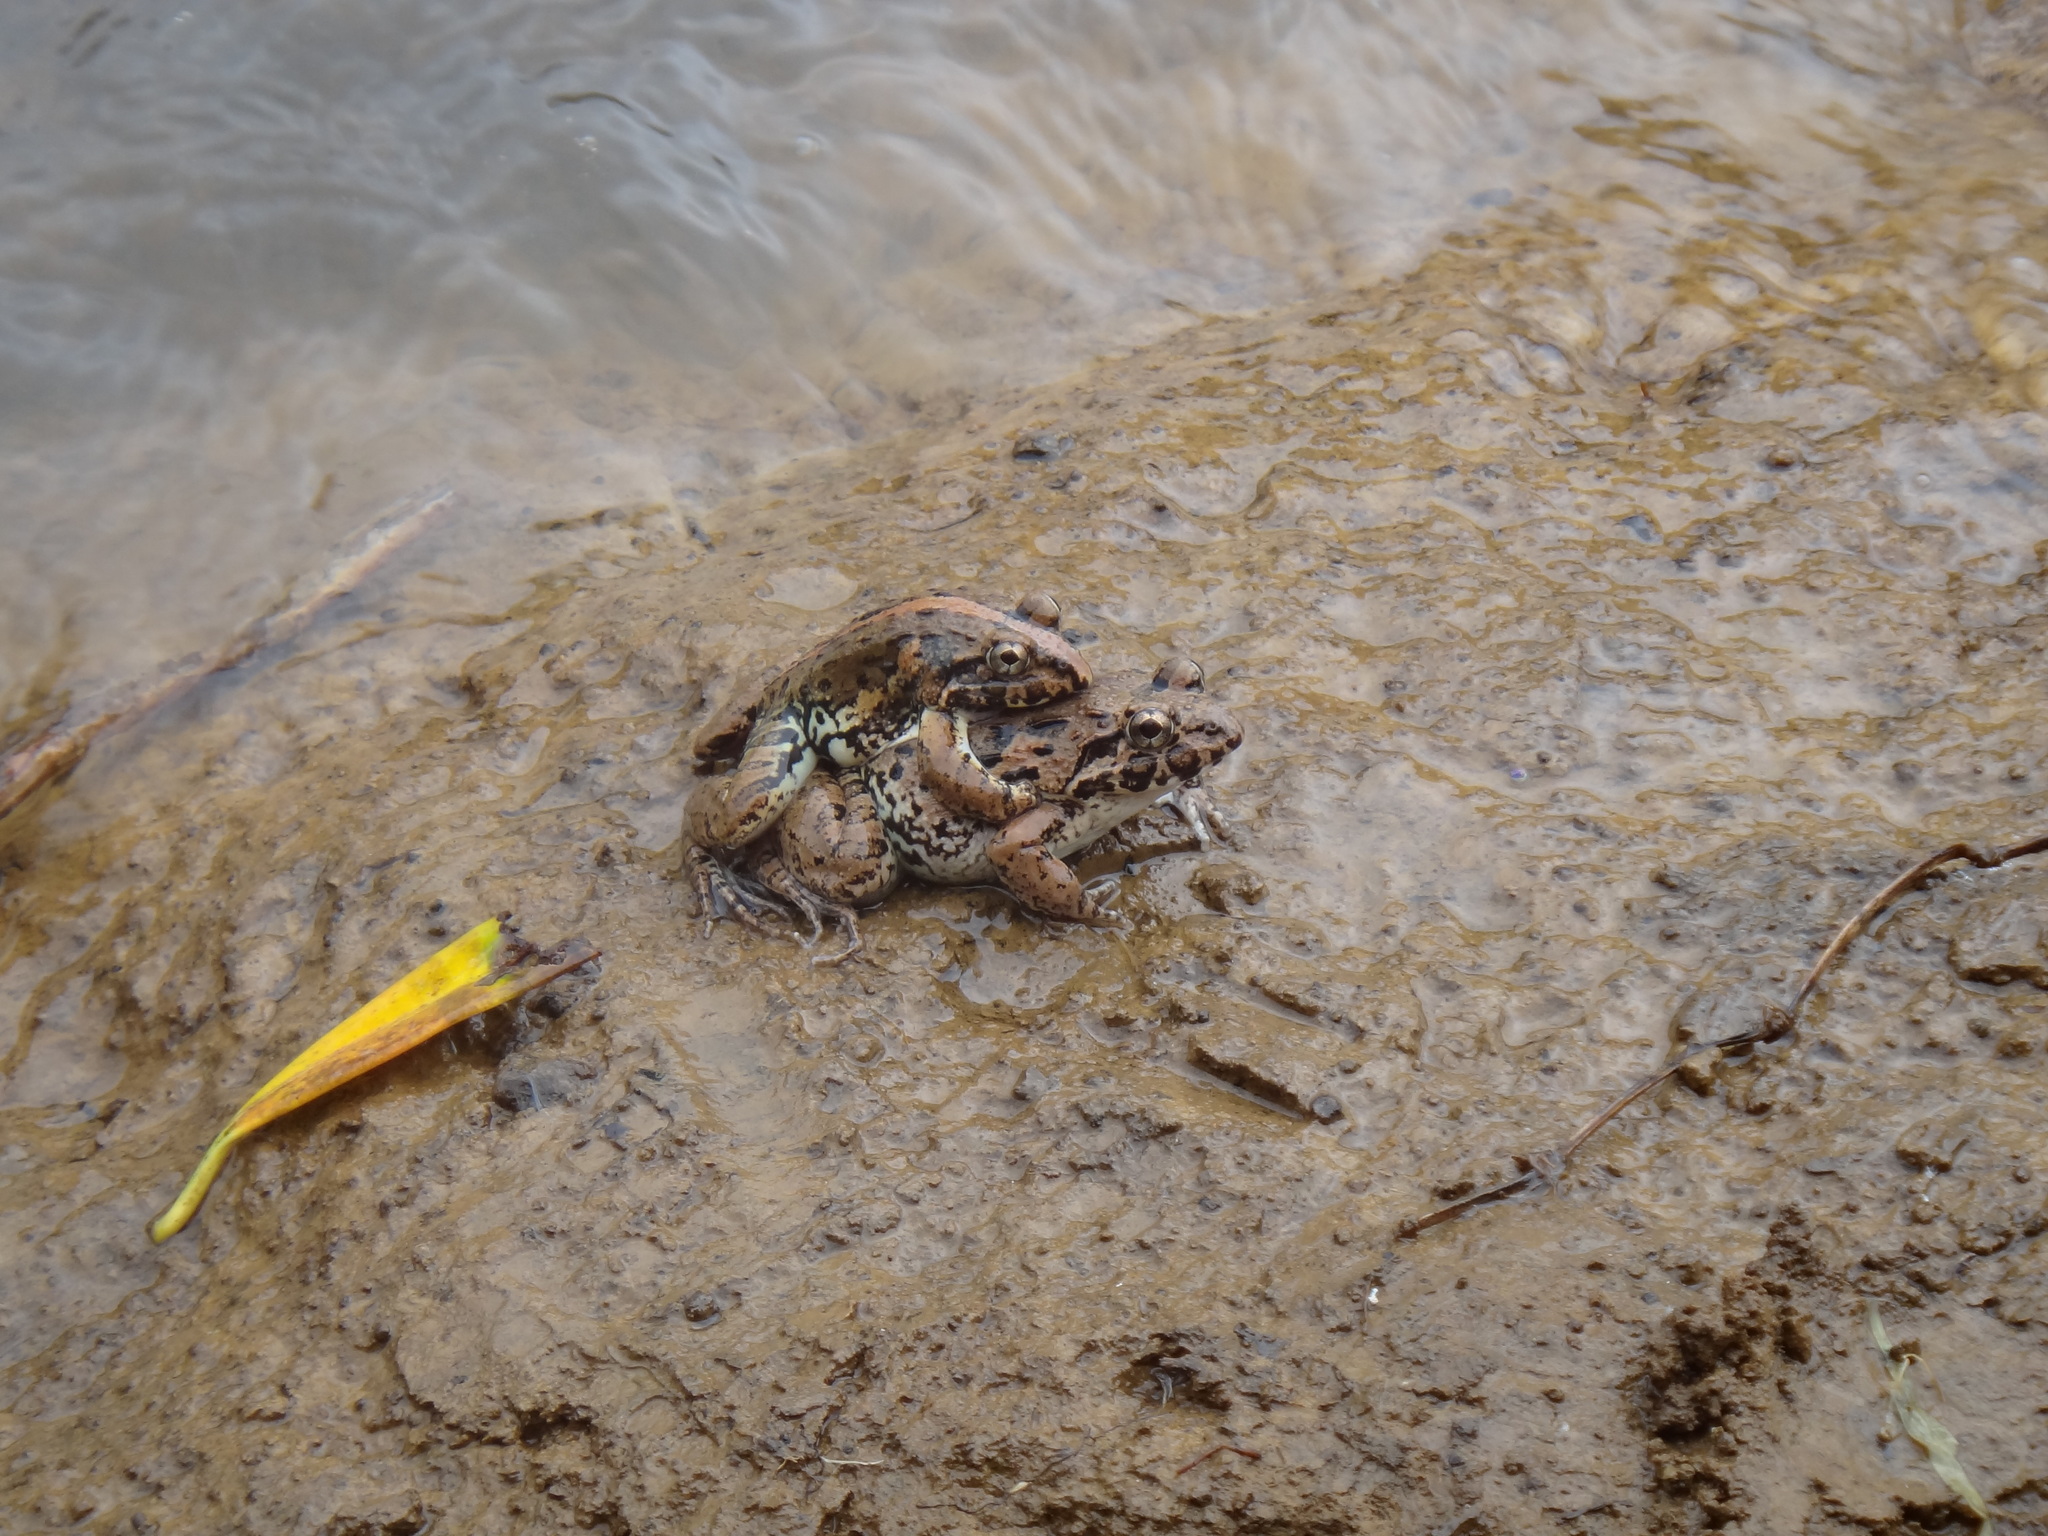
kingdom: Animalia
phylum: Chordata
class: Amphibia
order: Anura
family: Dicroglossidae
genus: Fejervarya
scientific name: Fejervarya limnocharis
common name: Asian grass frog/common pond frog/field frog/grass frog/indian rice frog
